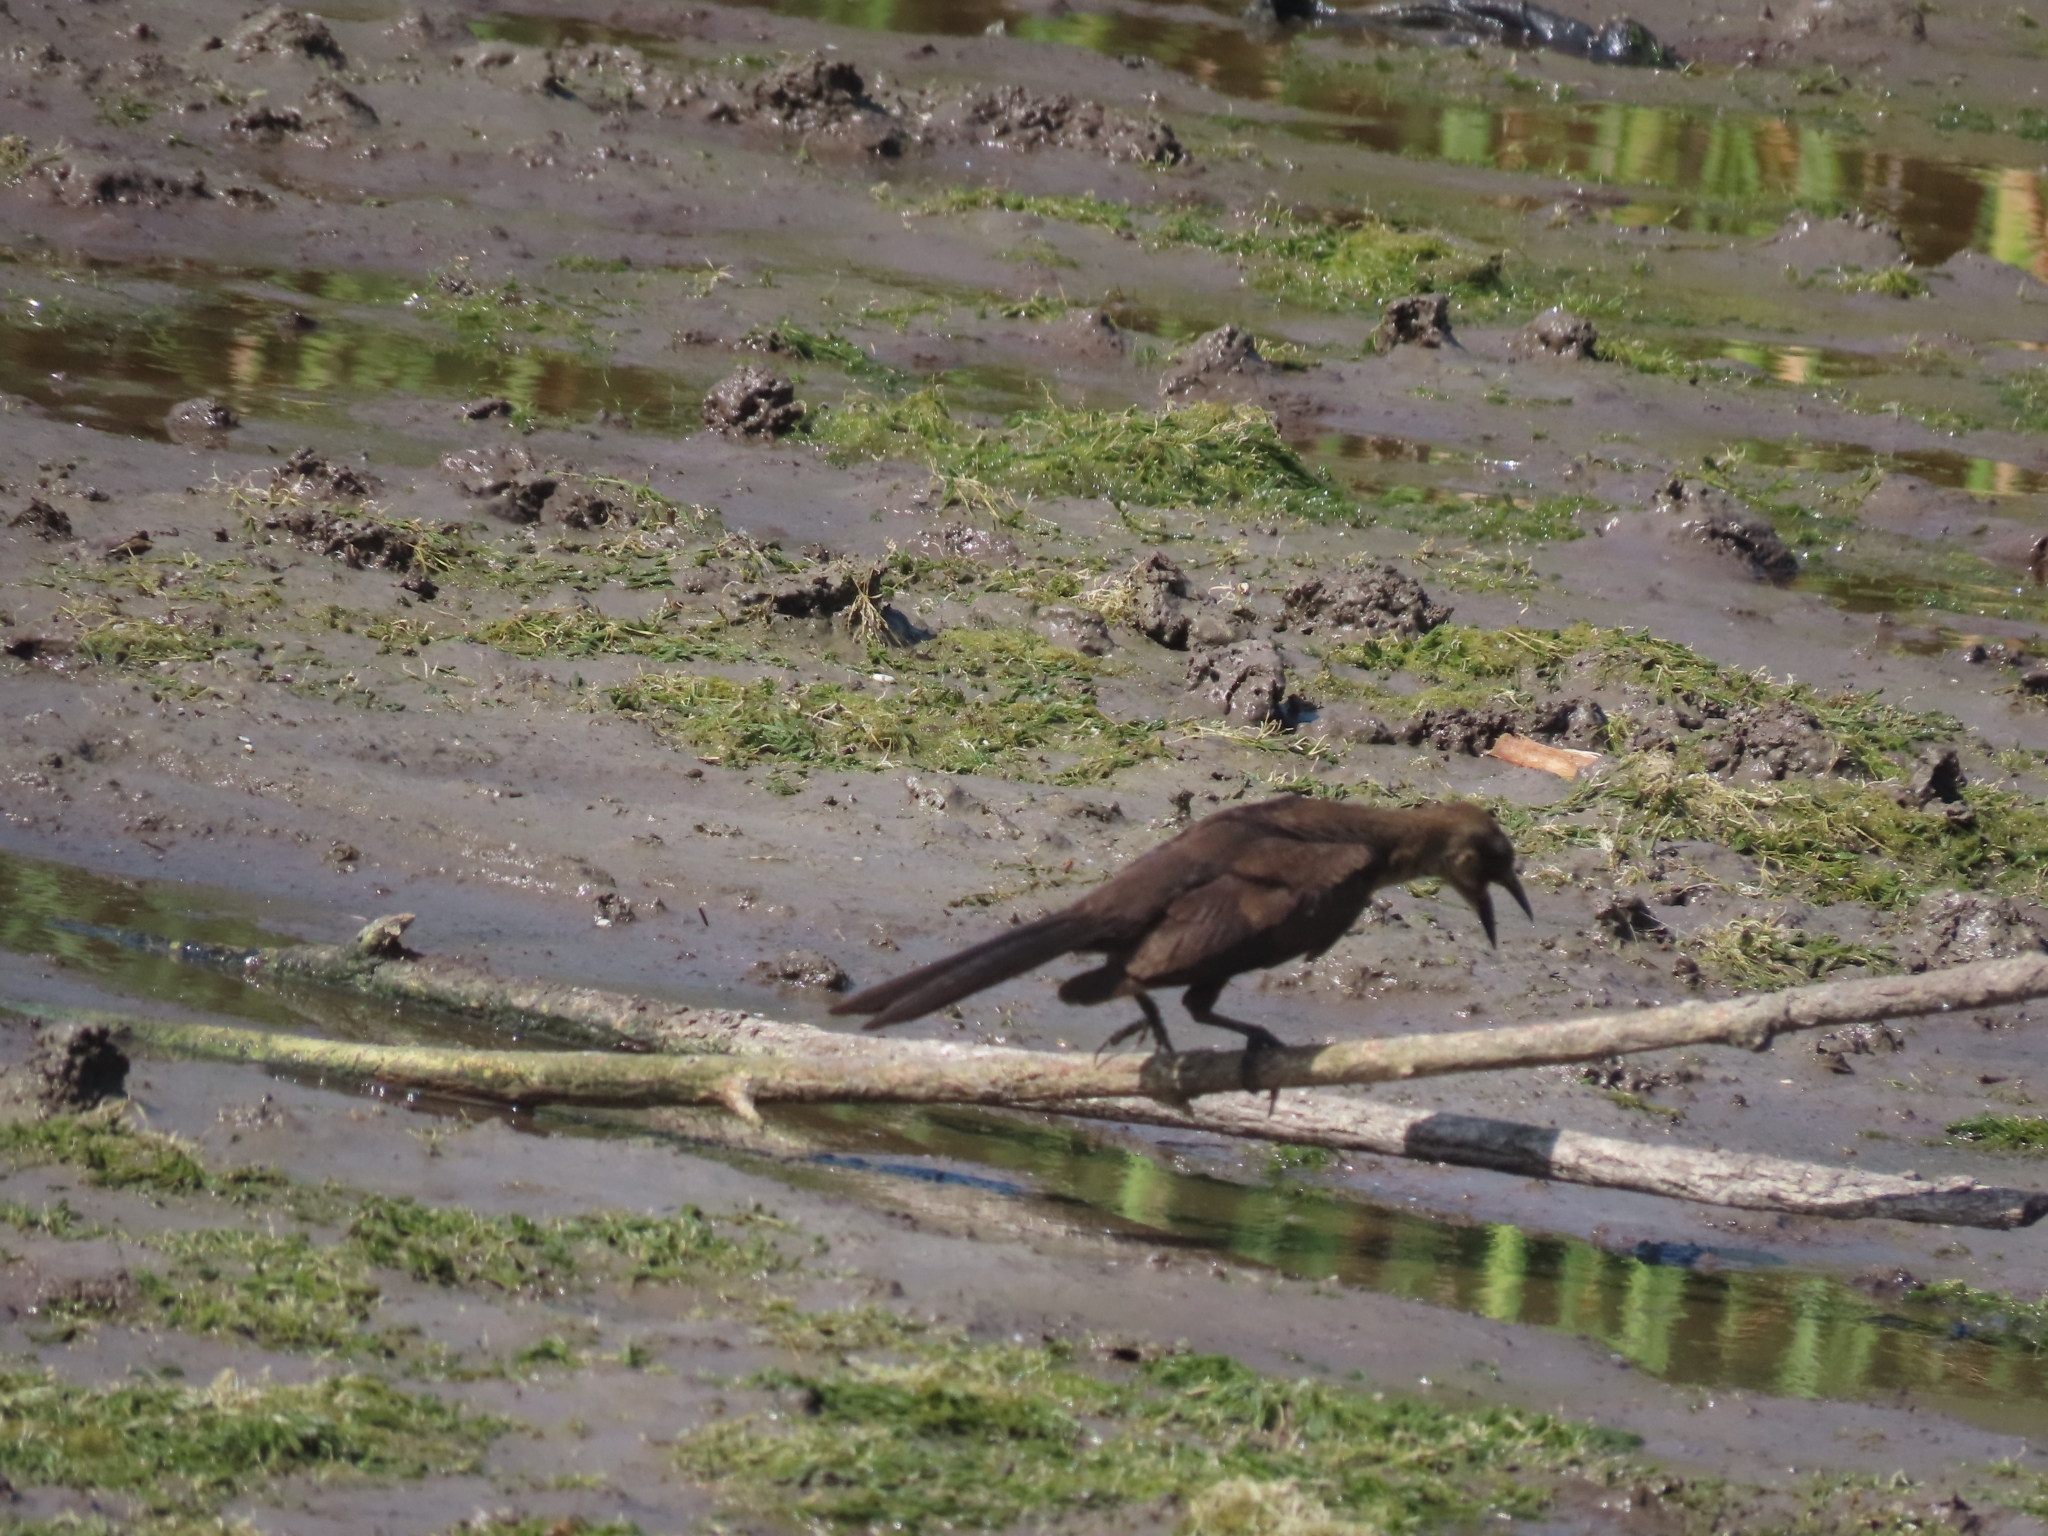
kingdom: Animalia
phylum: Chordata
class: Aves
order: Passeriformes
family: Icteridae
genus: Quiscalus
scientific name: Quiscalus mexicanus
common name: Great-tailed grackle
